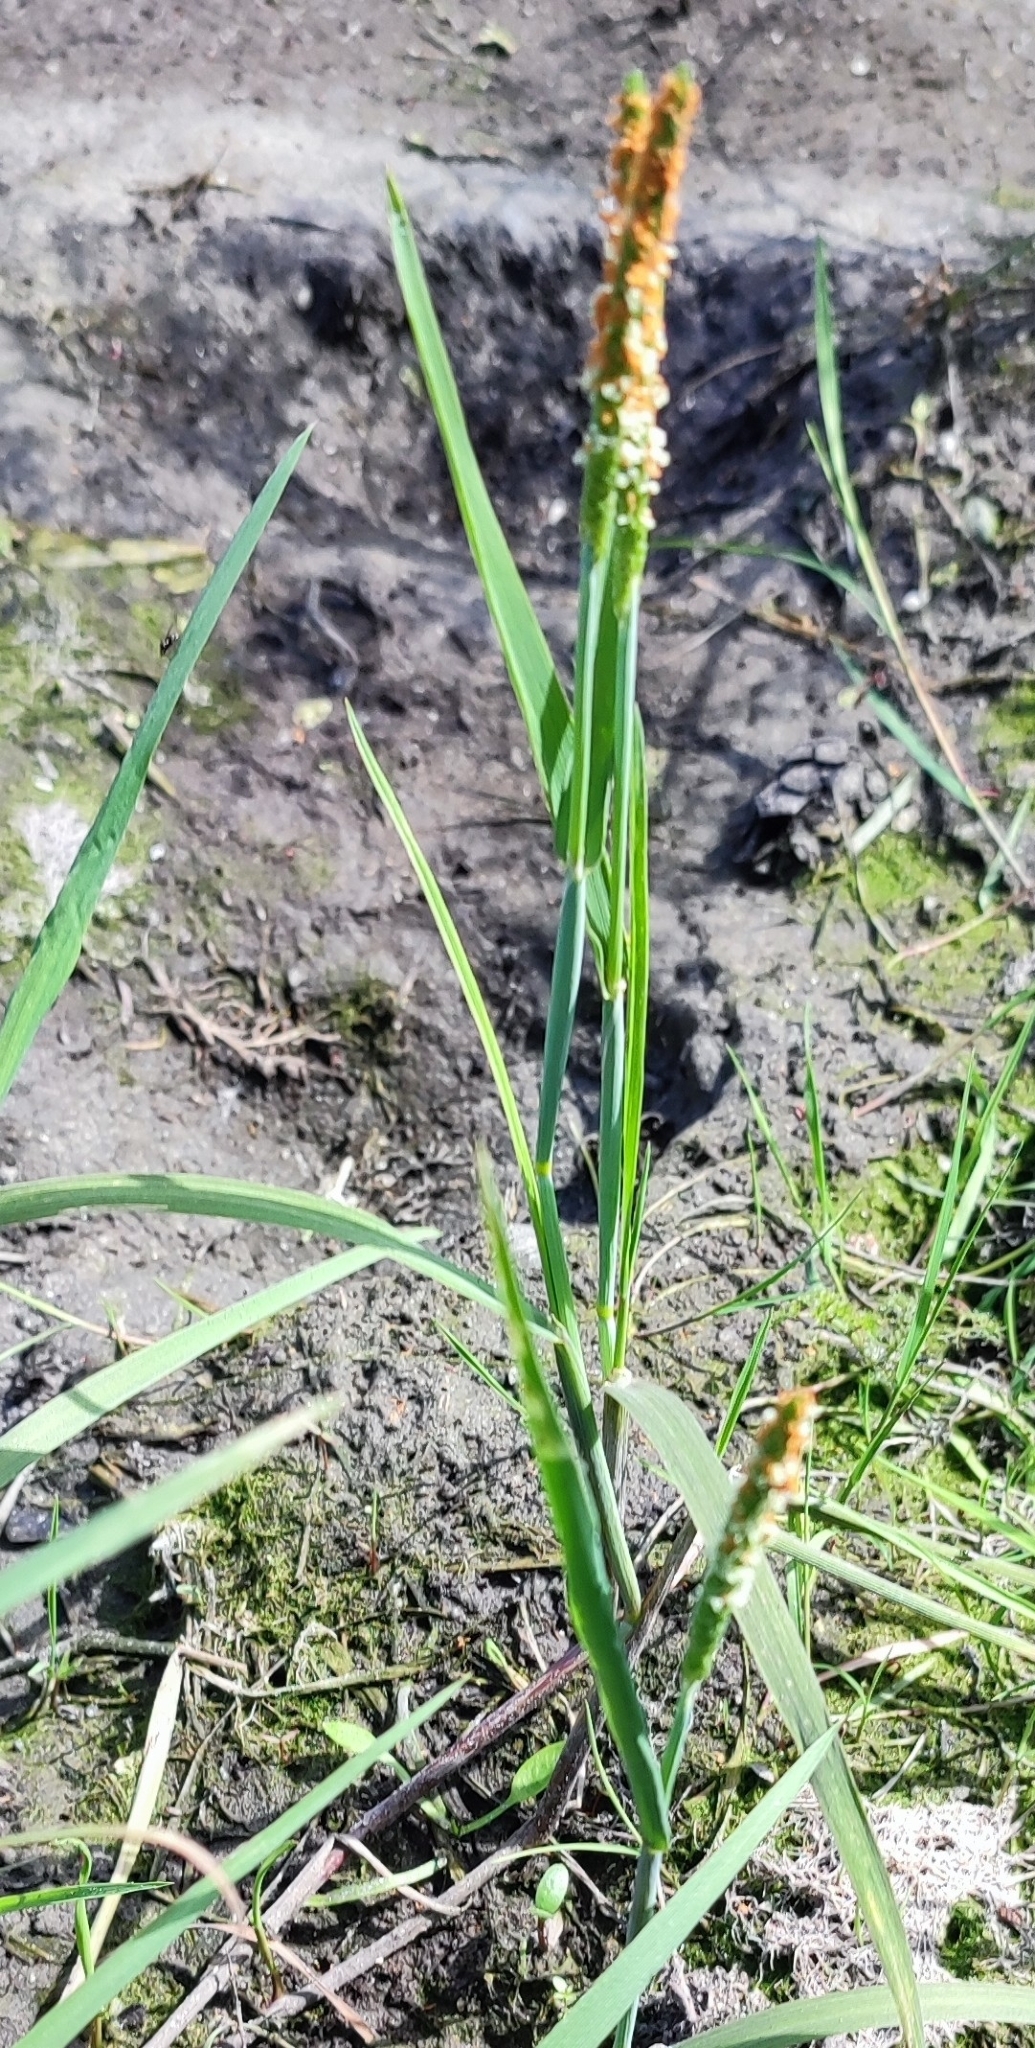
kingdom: Plantae
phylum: Tracheophyta
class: Liliopsida
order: Poales
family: Poaceae
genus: Alopecurus
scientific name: Alopecurus aequalis
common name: Orange foxtail
